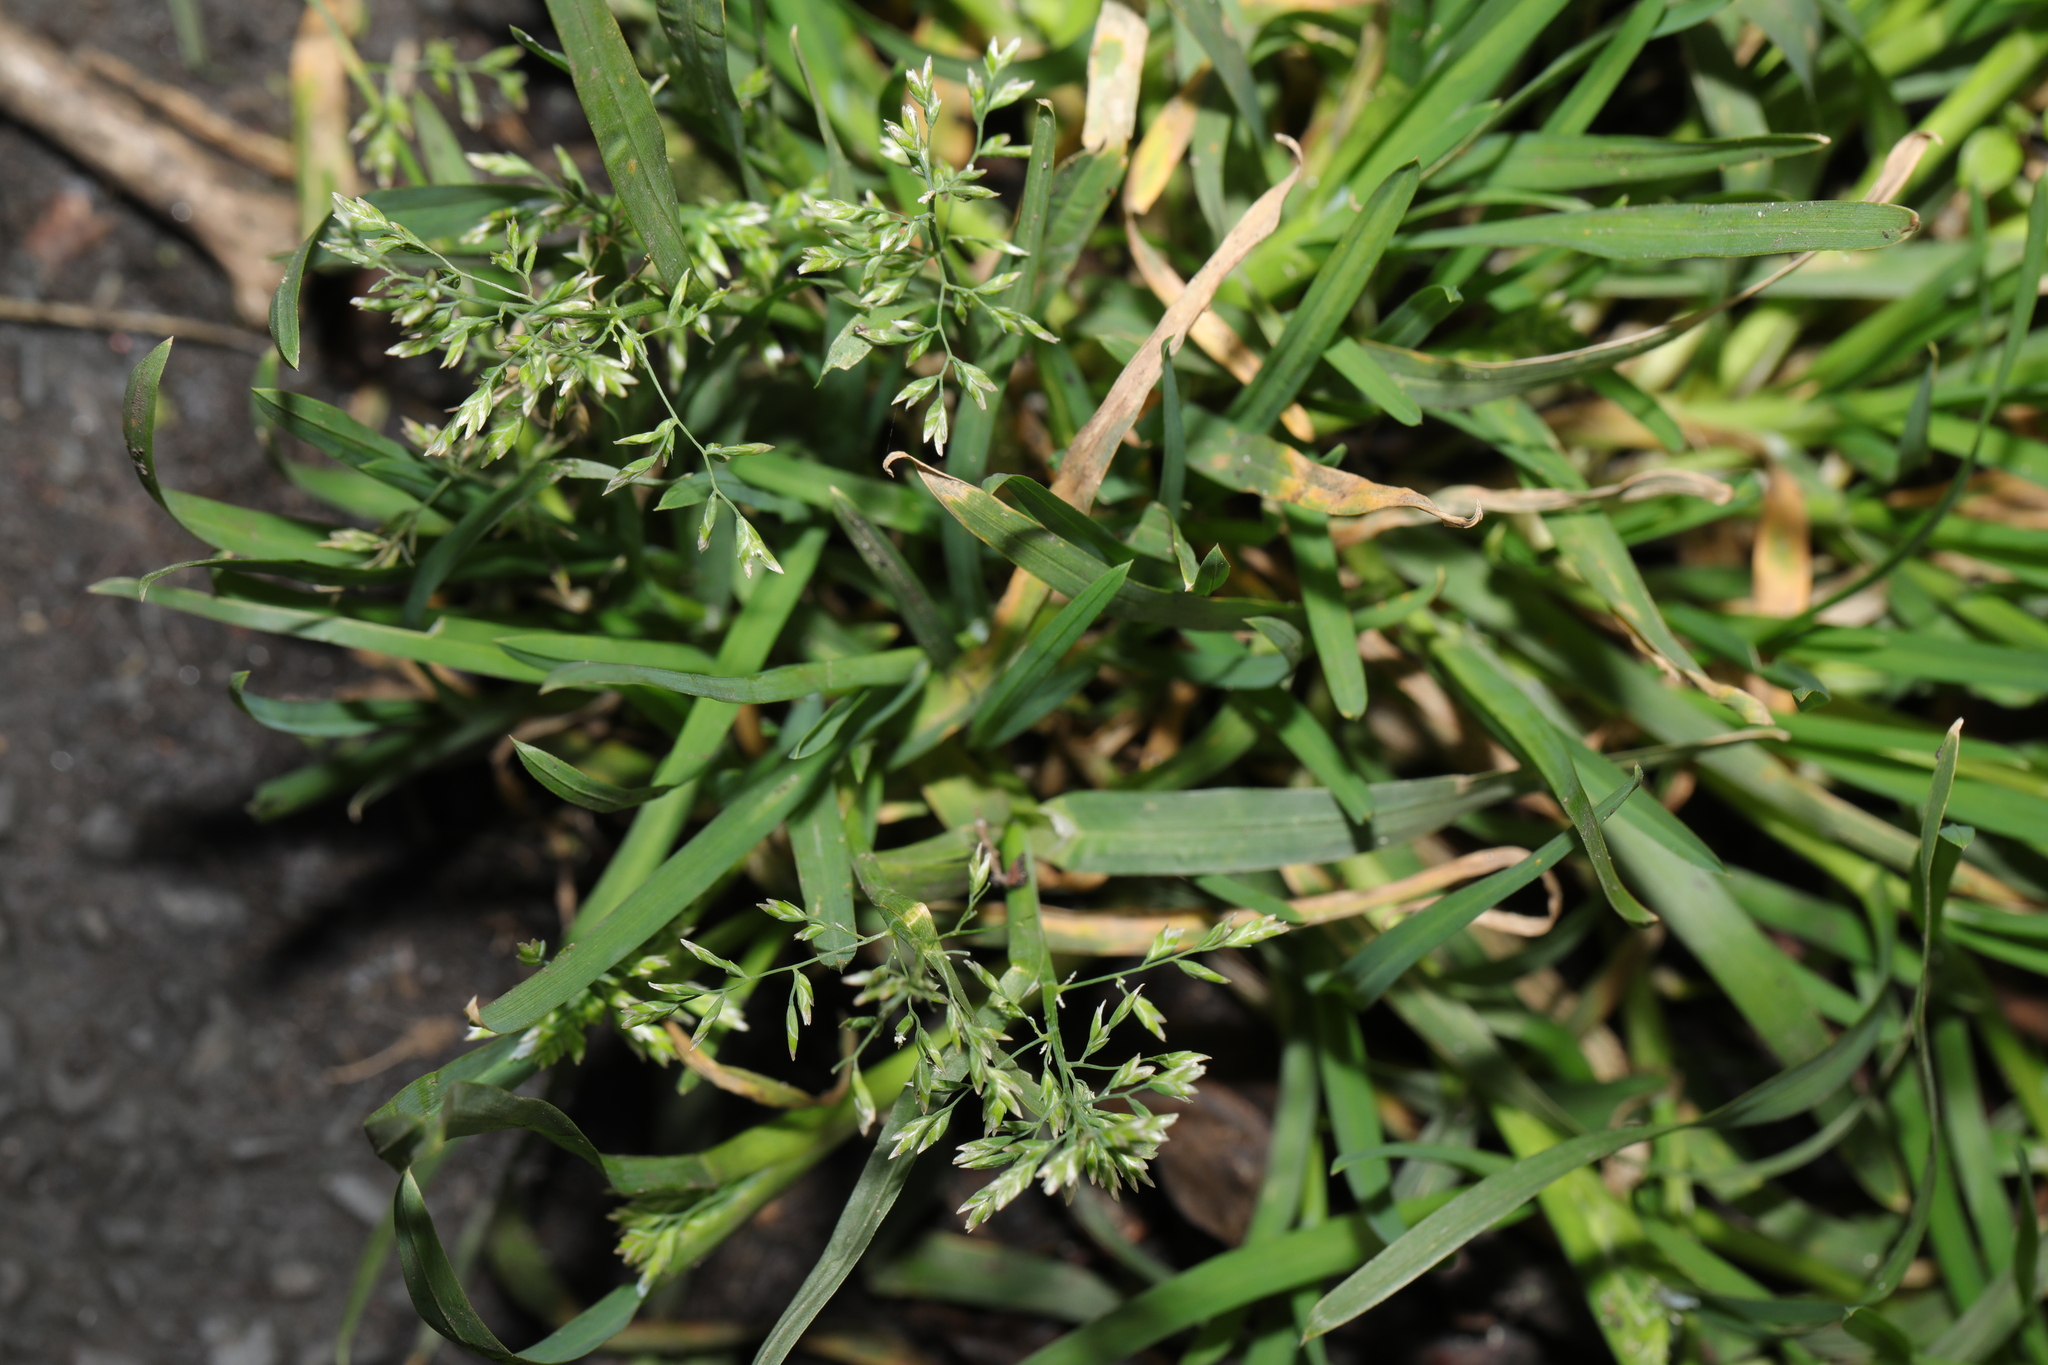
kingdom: Plantae
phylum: Tracheophyta
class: Liliopsida
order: Poales
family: Poaceae
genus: Poa
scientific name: Poa annua
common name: Annual bluegrass
